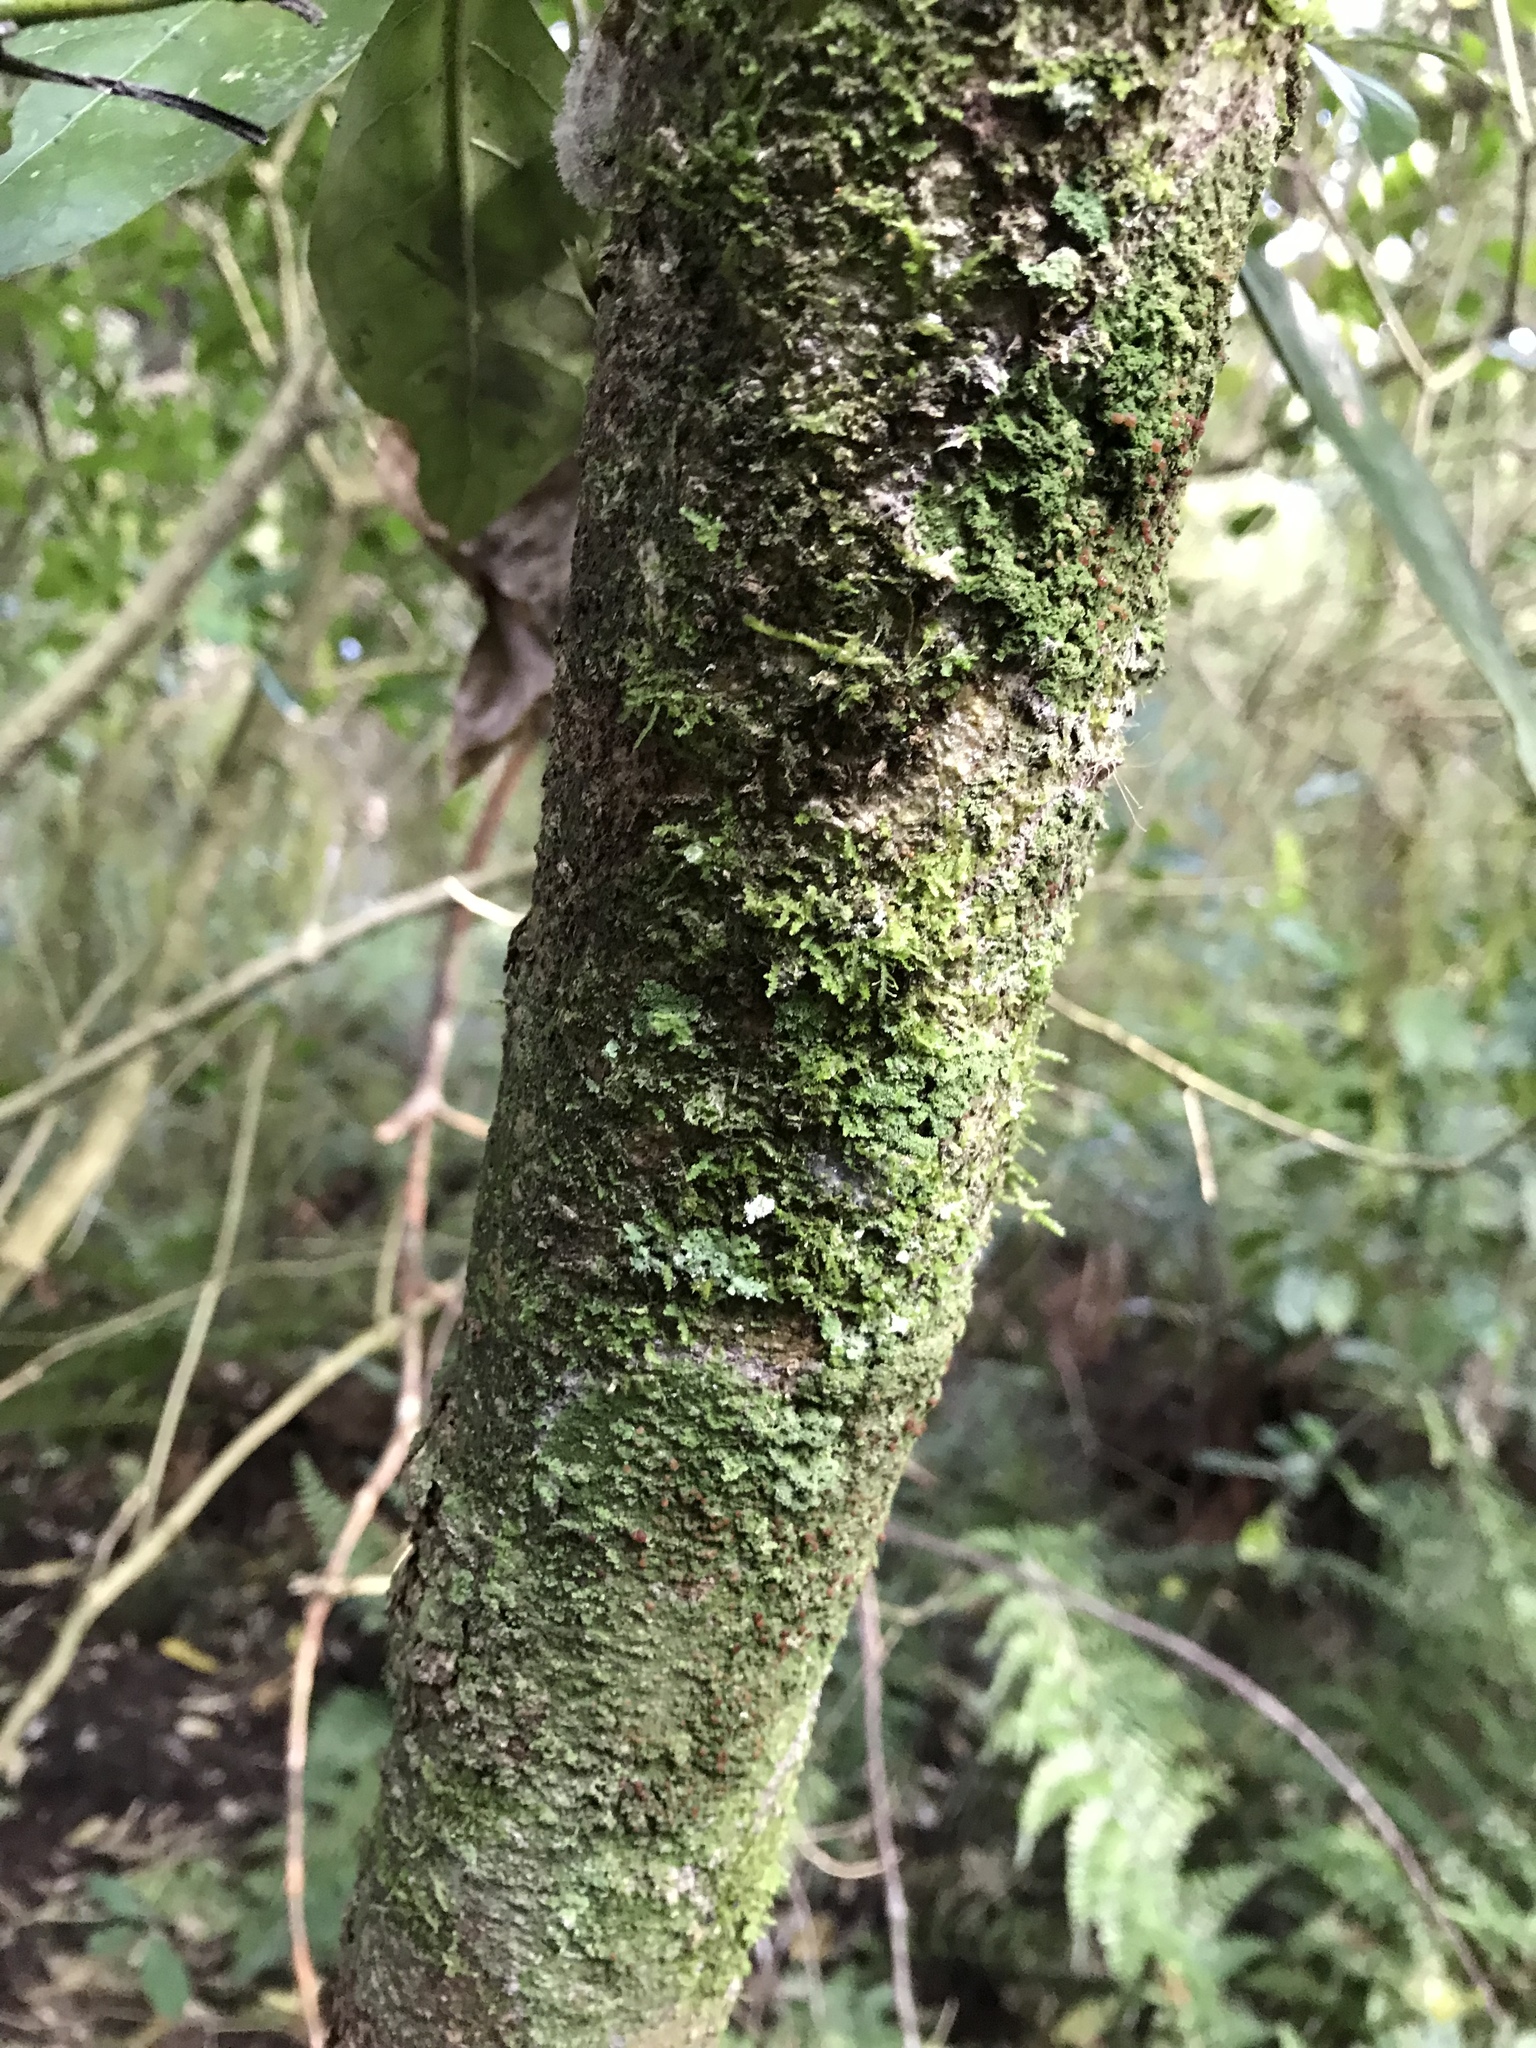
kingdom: Plantae
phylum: Tracheophyta
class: Magnoliopsida
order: Asterales
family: Rousseaceae
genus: Carpodetus
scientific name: Carpodetus serratus
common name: White mapau
